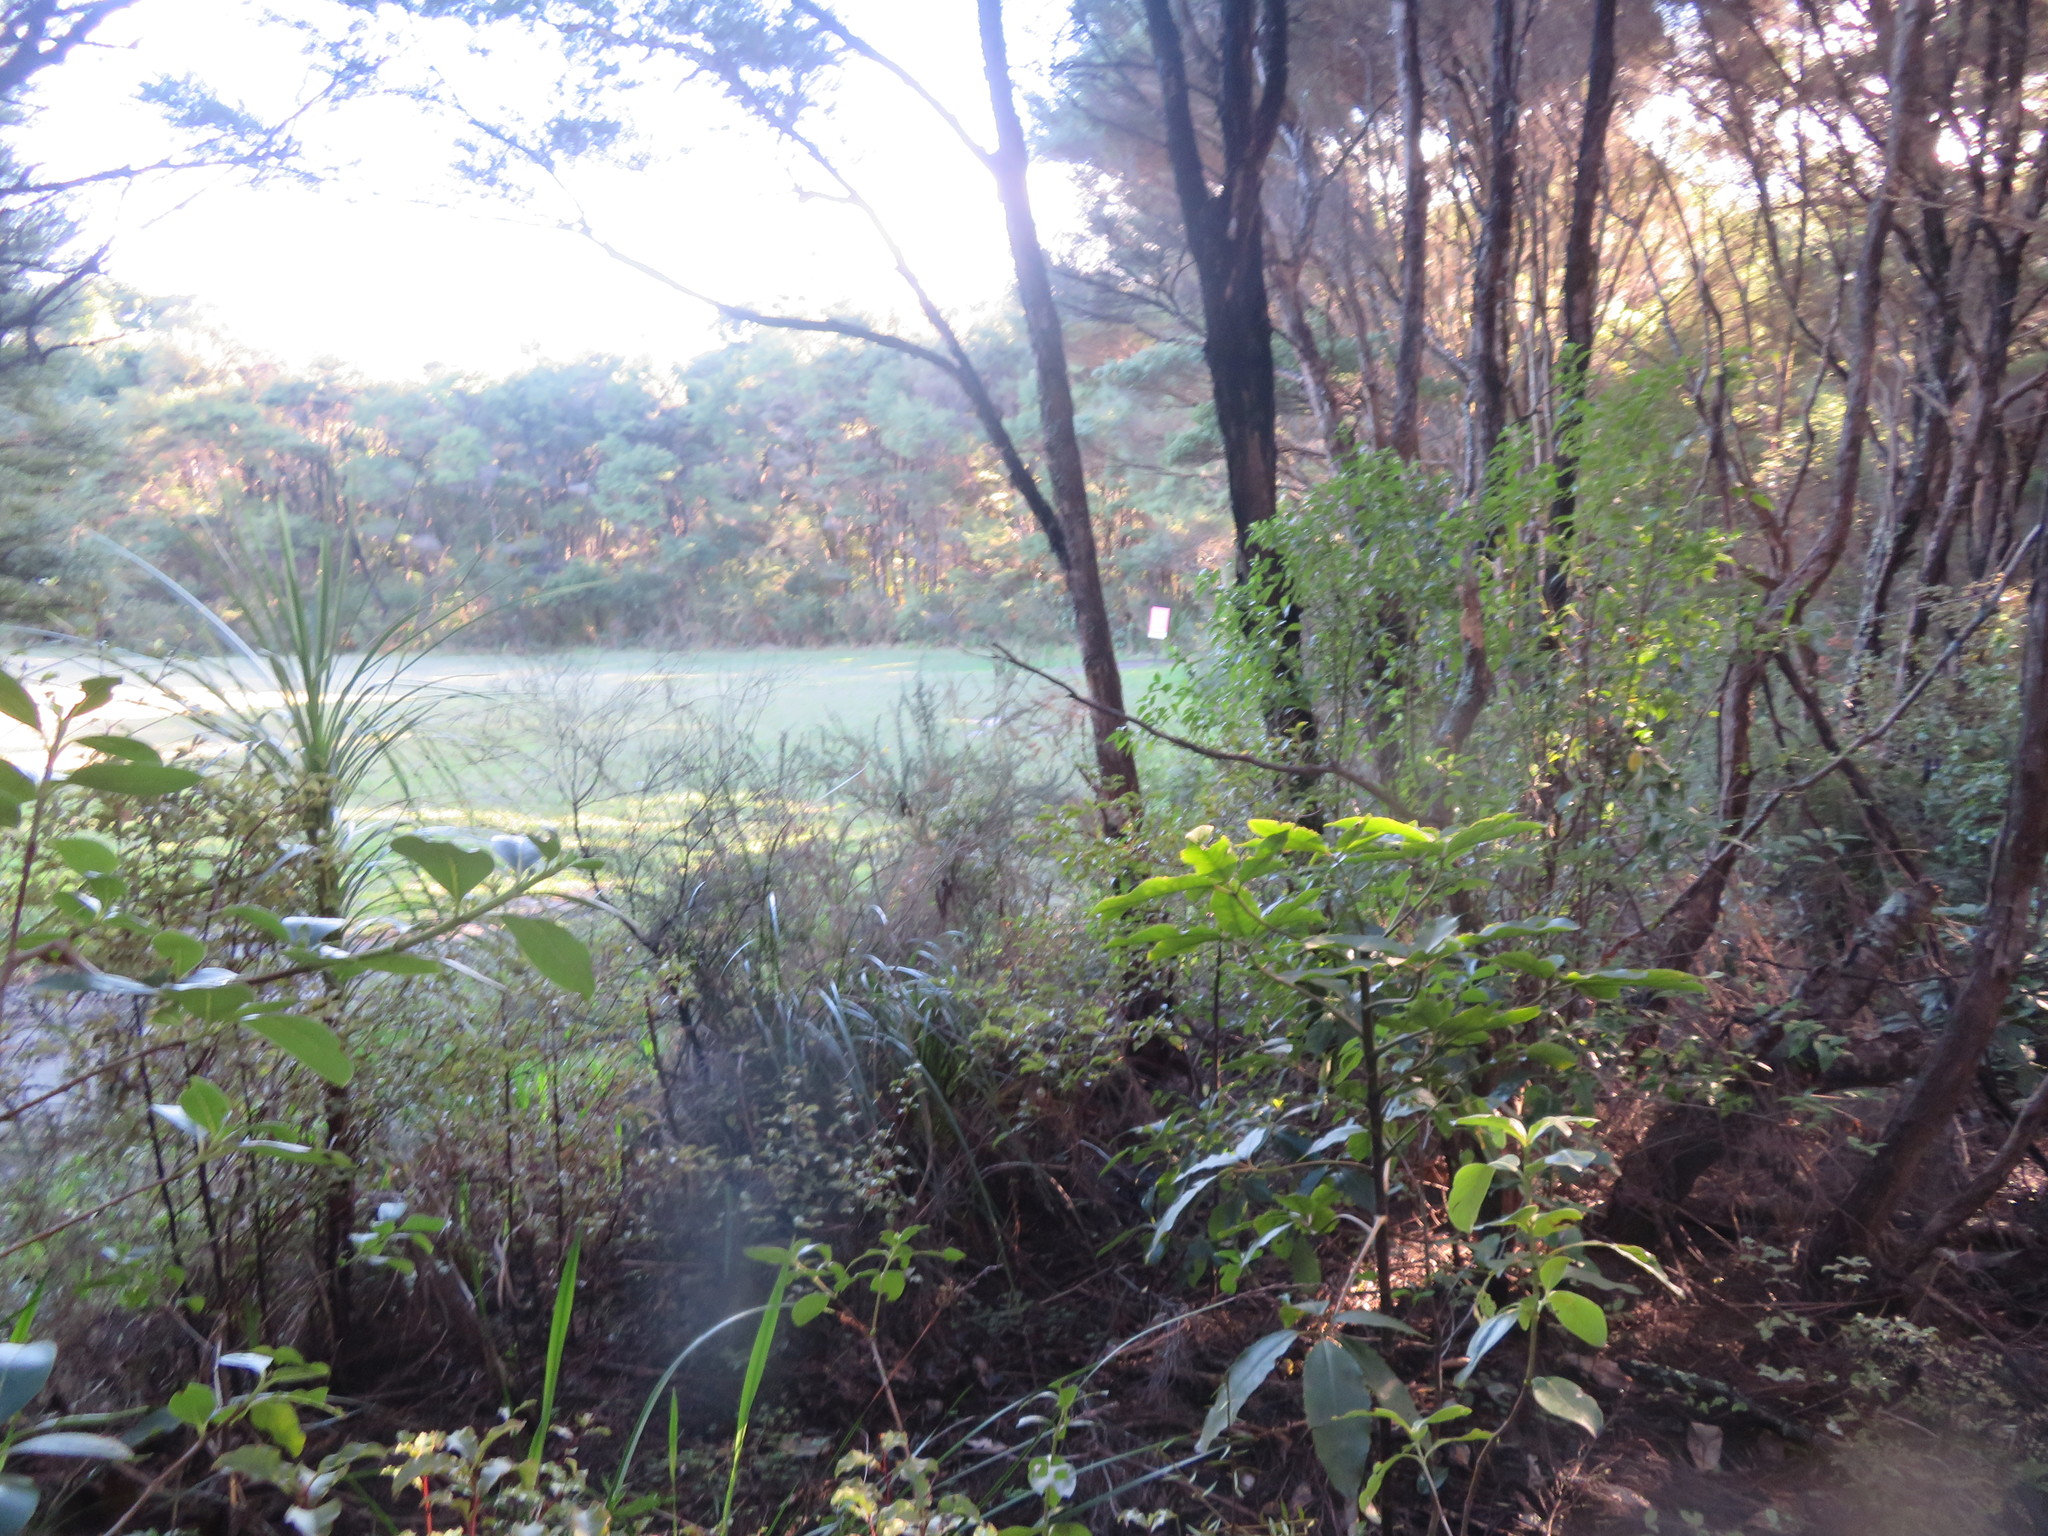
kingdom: Plantae
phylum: Tracheophyta
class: Liliopsida
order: Asparagales
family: Asparagaceae
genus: Cordyline
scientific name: Cordyline australis
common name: Cabbage-palm
